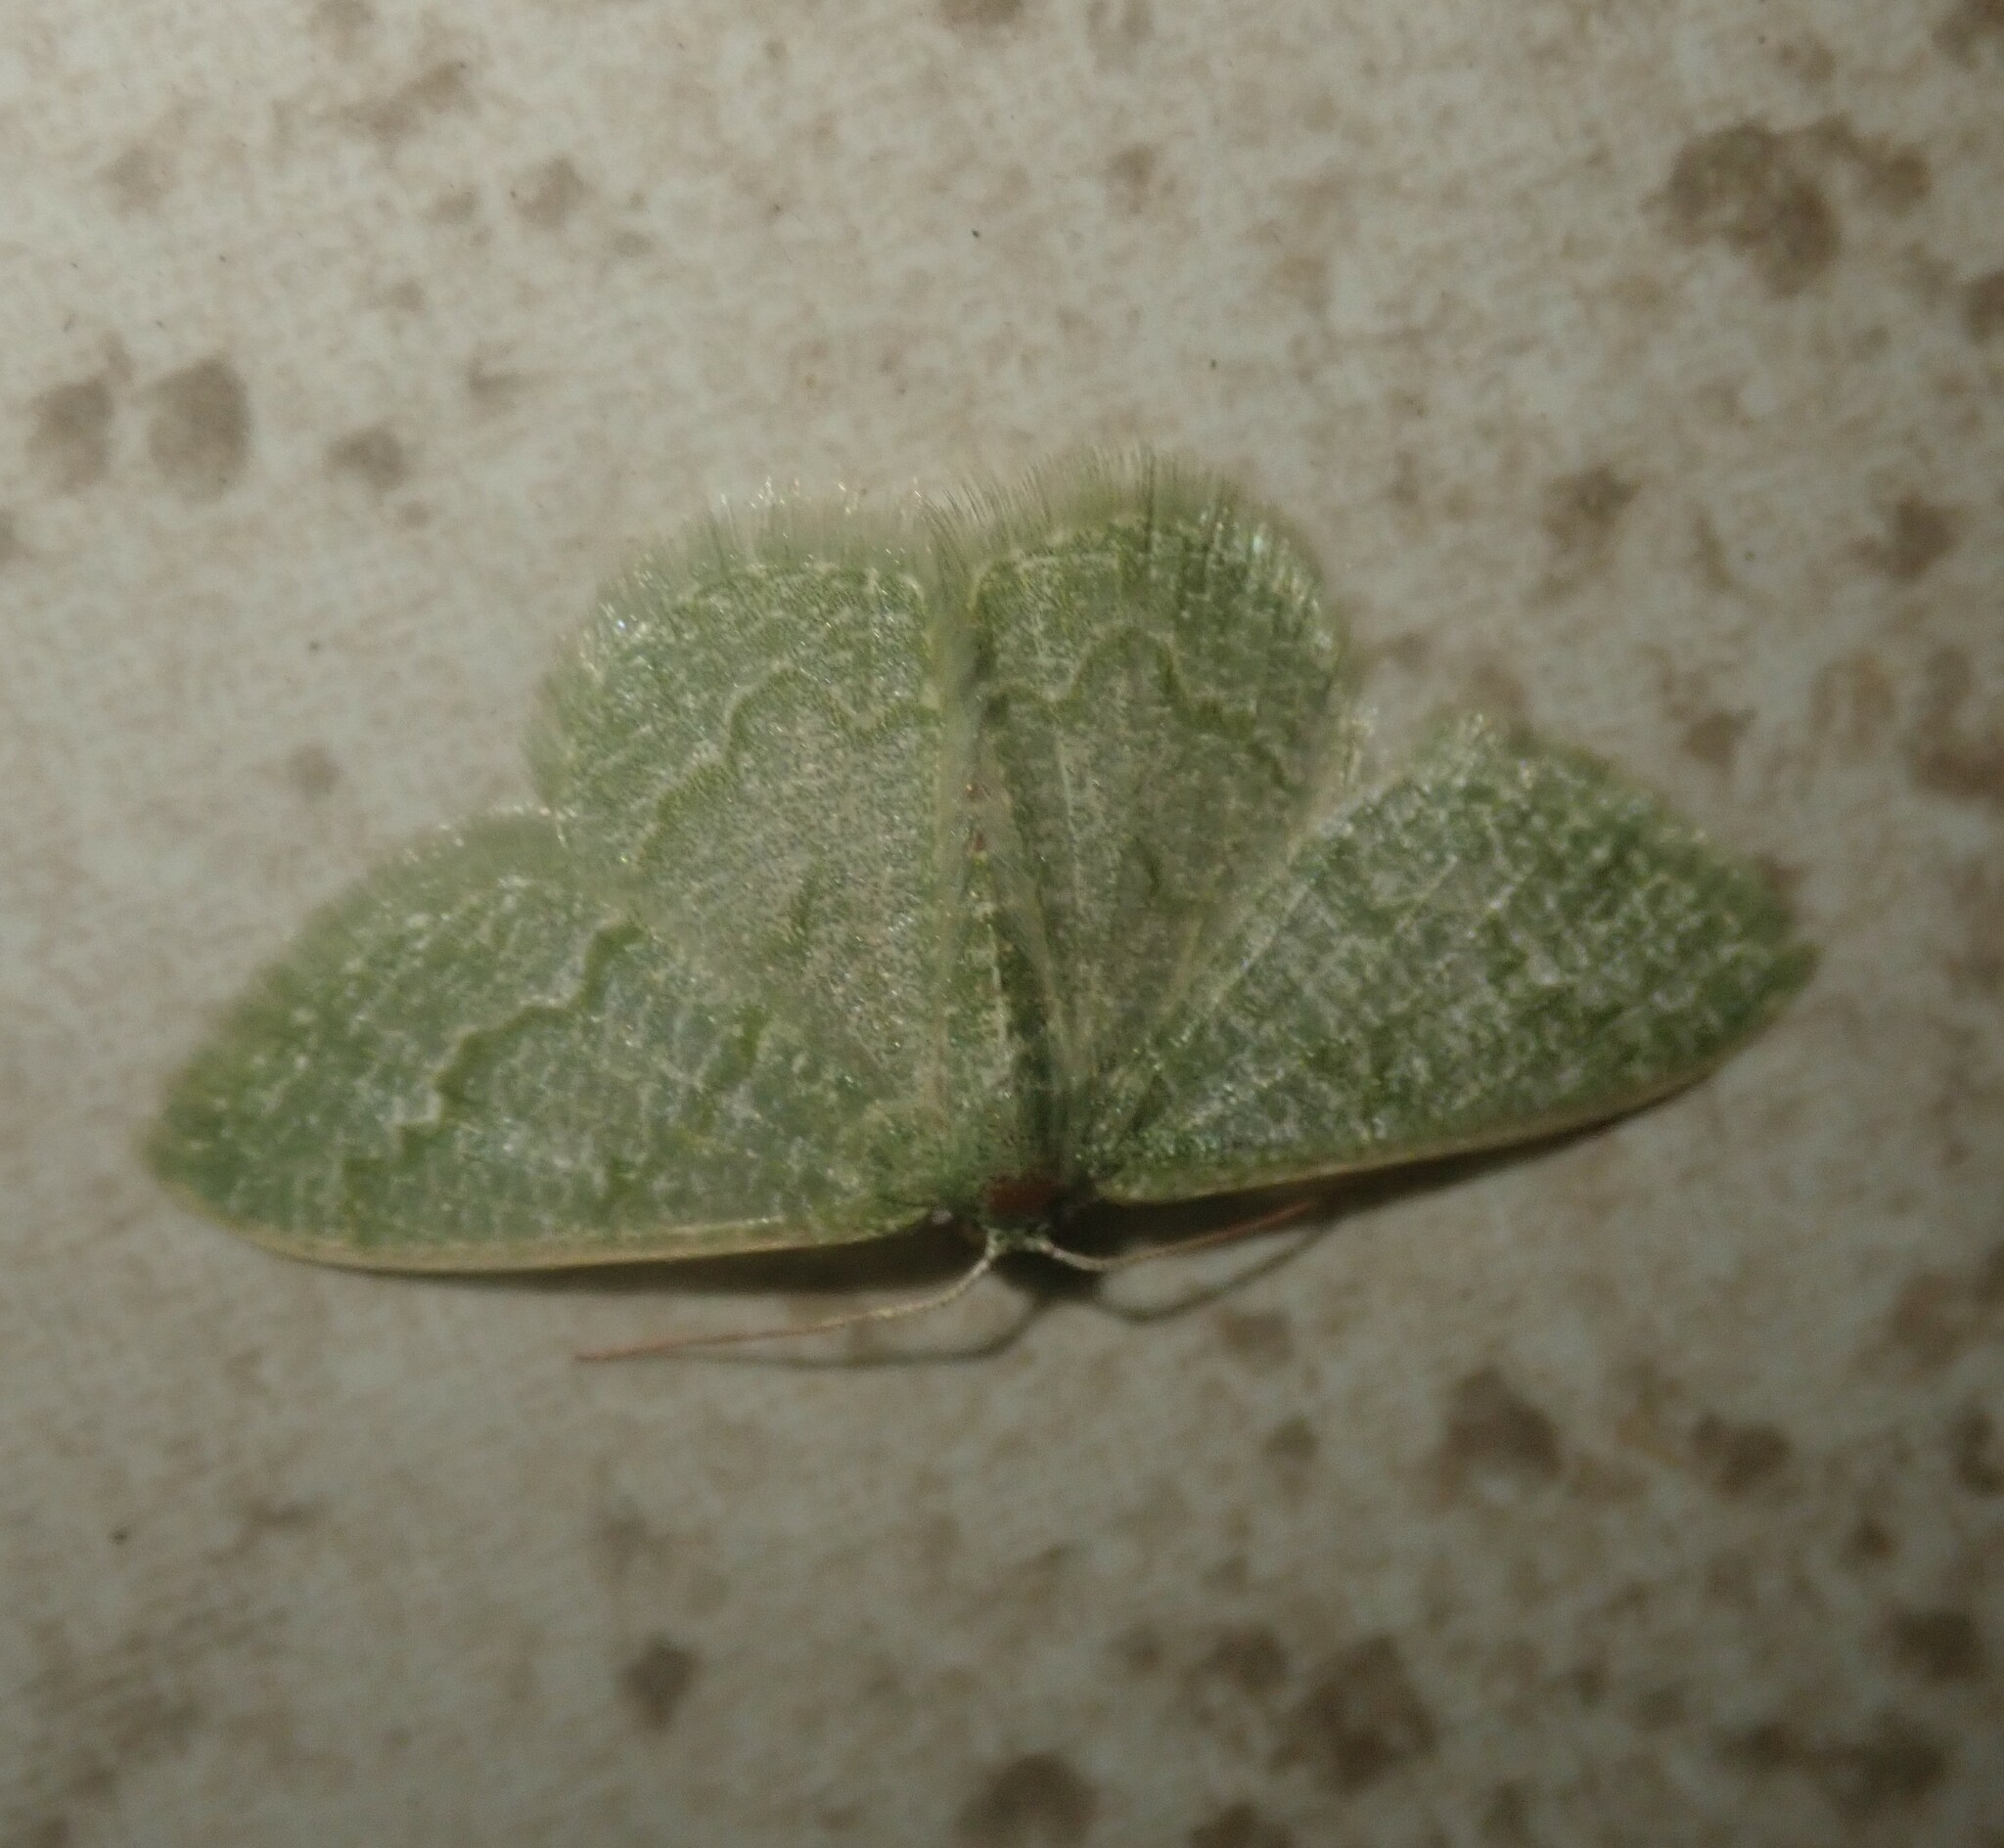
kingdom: Animalia
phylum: Arthropoda
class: Insecta
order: Lepidoptera
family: Geometridae
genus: Chlorissa
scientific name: Chlorissa albistrigulata
